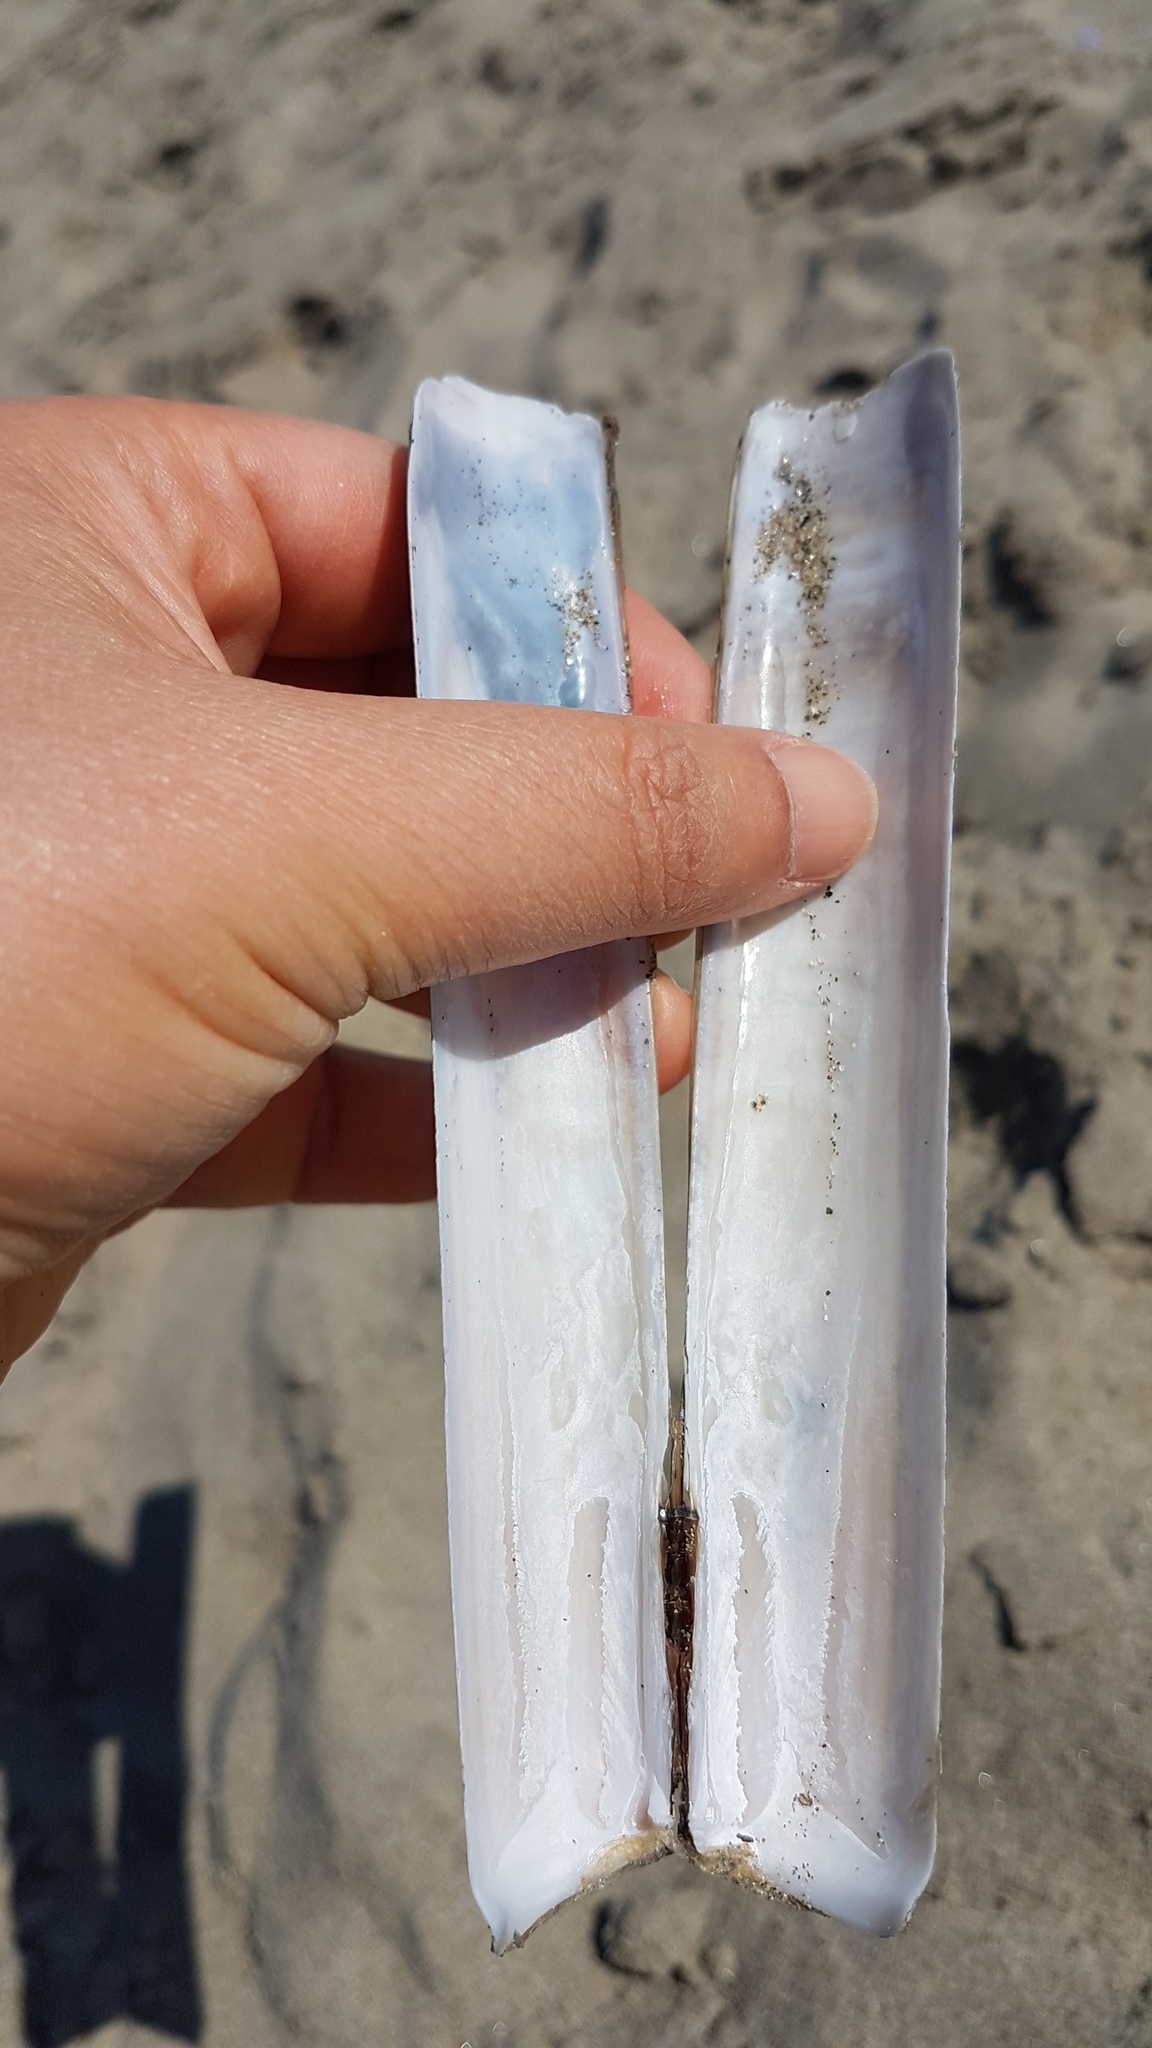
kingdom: Animalia
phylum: Mollusca
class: Bivalvia
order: Adapedonta
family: Solenidae
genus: Solen
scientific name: Solen marginatus
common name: Grooved razor shell
